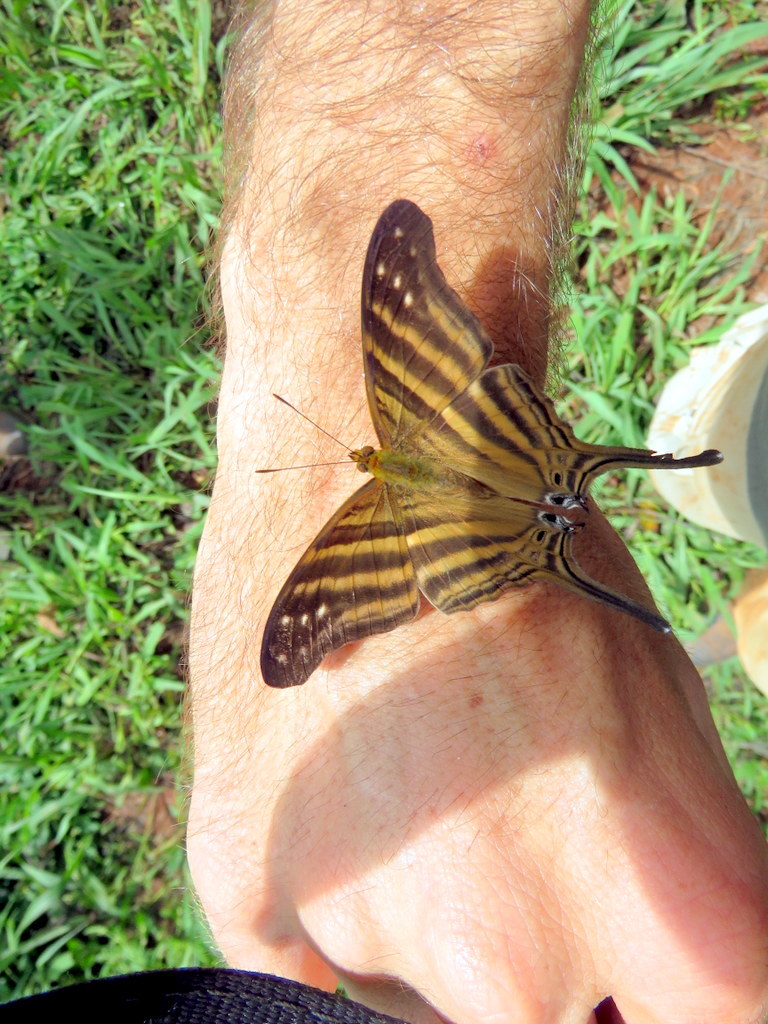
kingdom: Animalia
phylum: Arthropoda
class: Insecta
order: Lepidoptera
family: Nymphalidae
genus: Marpesia
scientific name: Marpesia chiron
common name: Many-banded daggerwing
